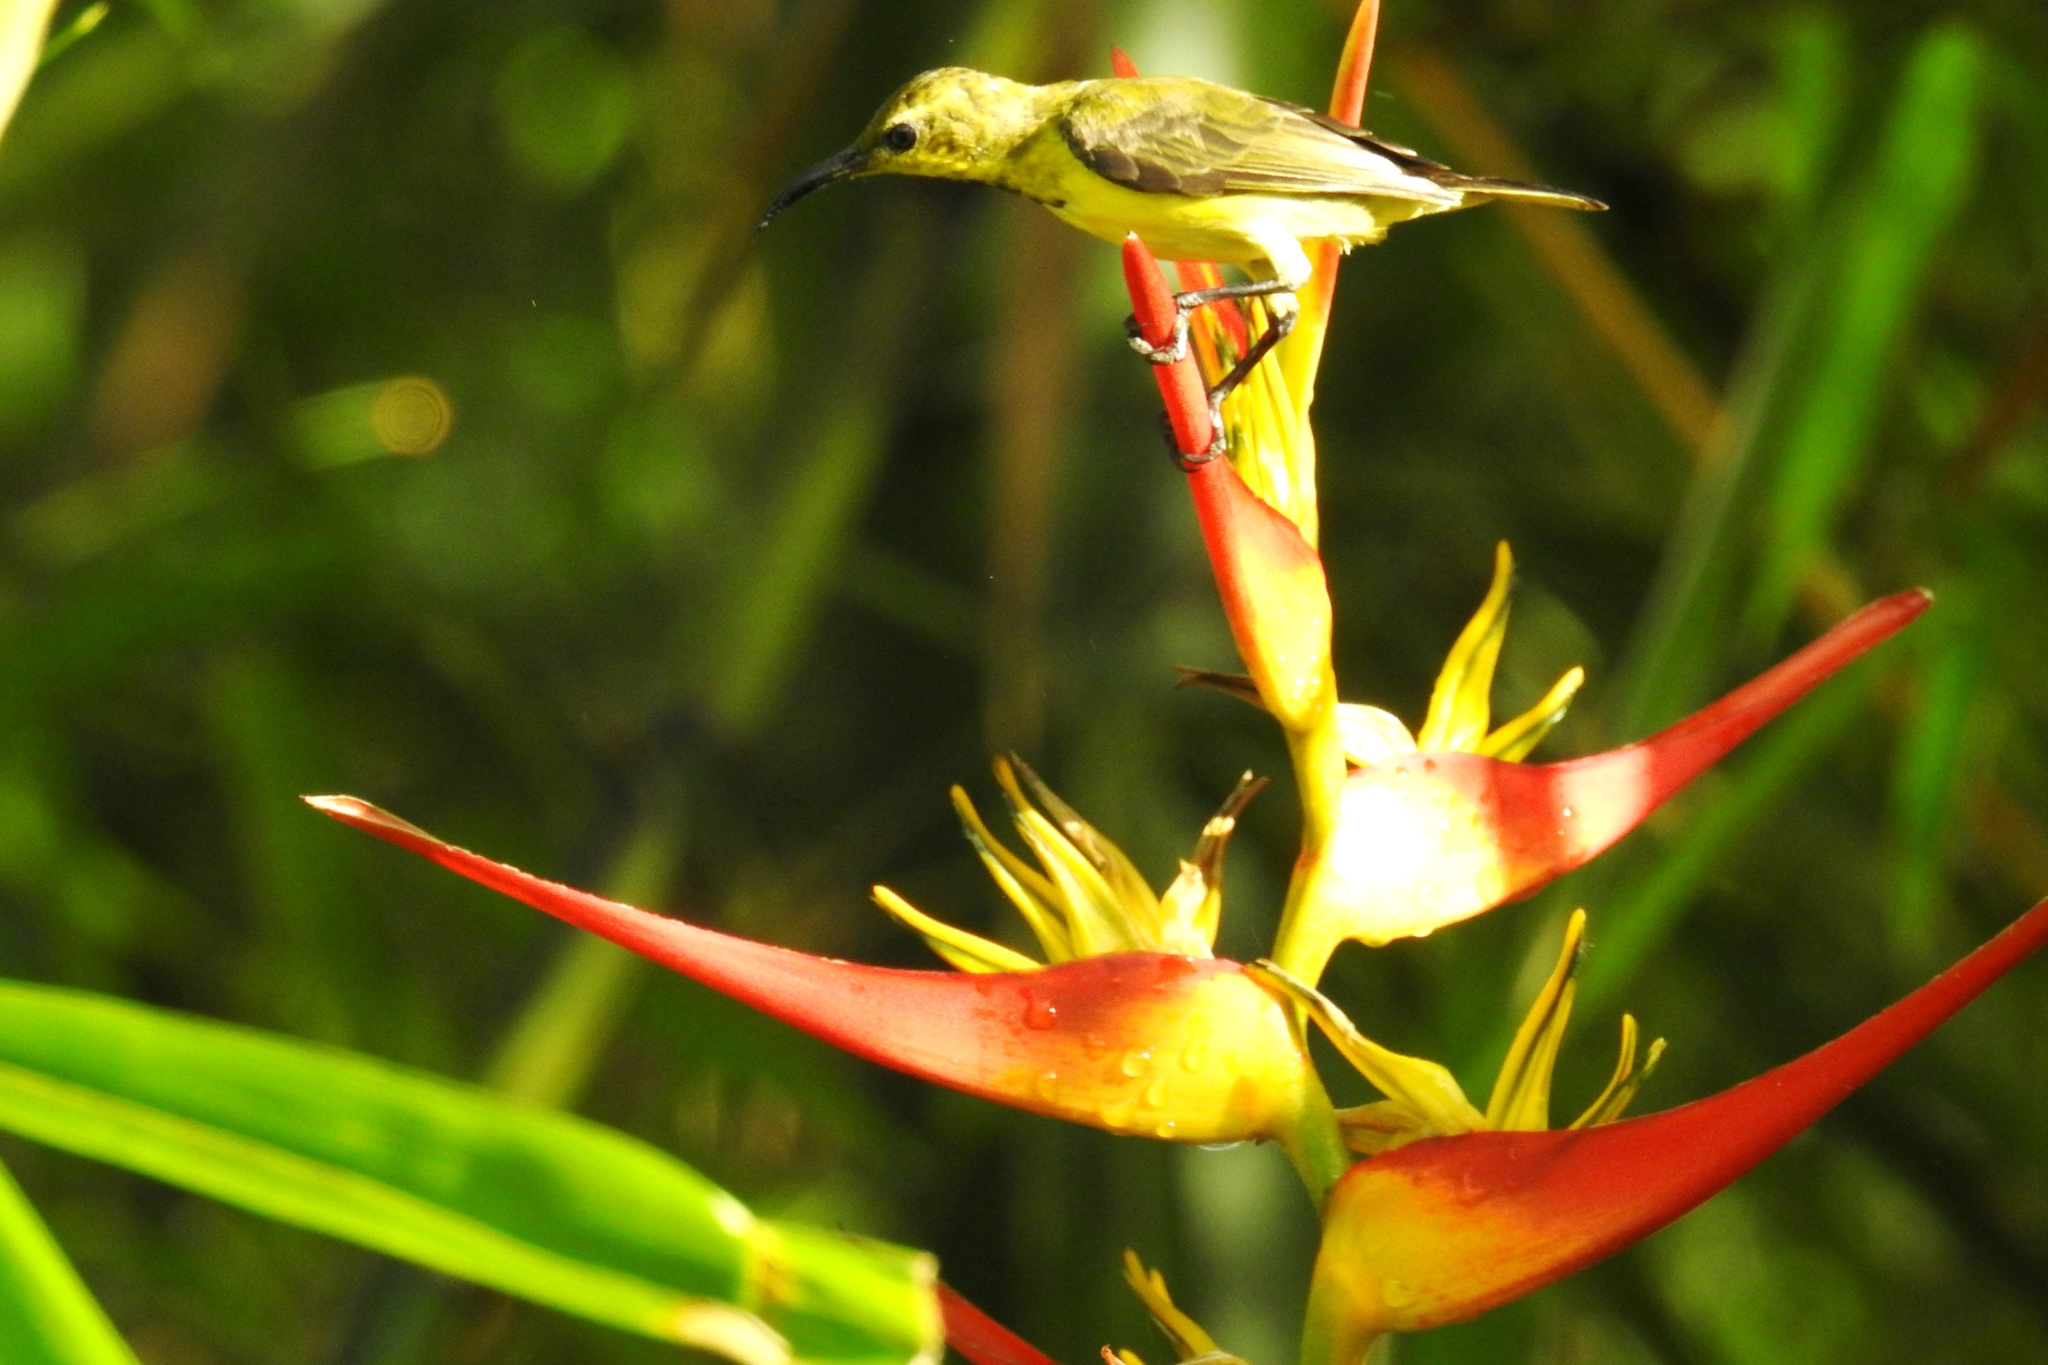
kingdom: Animalia
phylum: Chordata
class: Aves
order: Passeriformes
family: Nectariniidae
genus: Cinnyris
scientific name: Cinnyris jugularis
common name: Olive-backed sunbird
